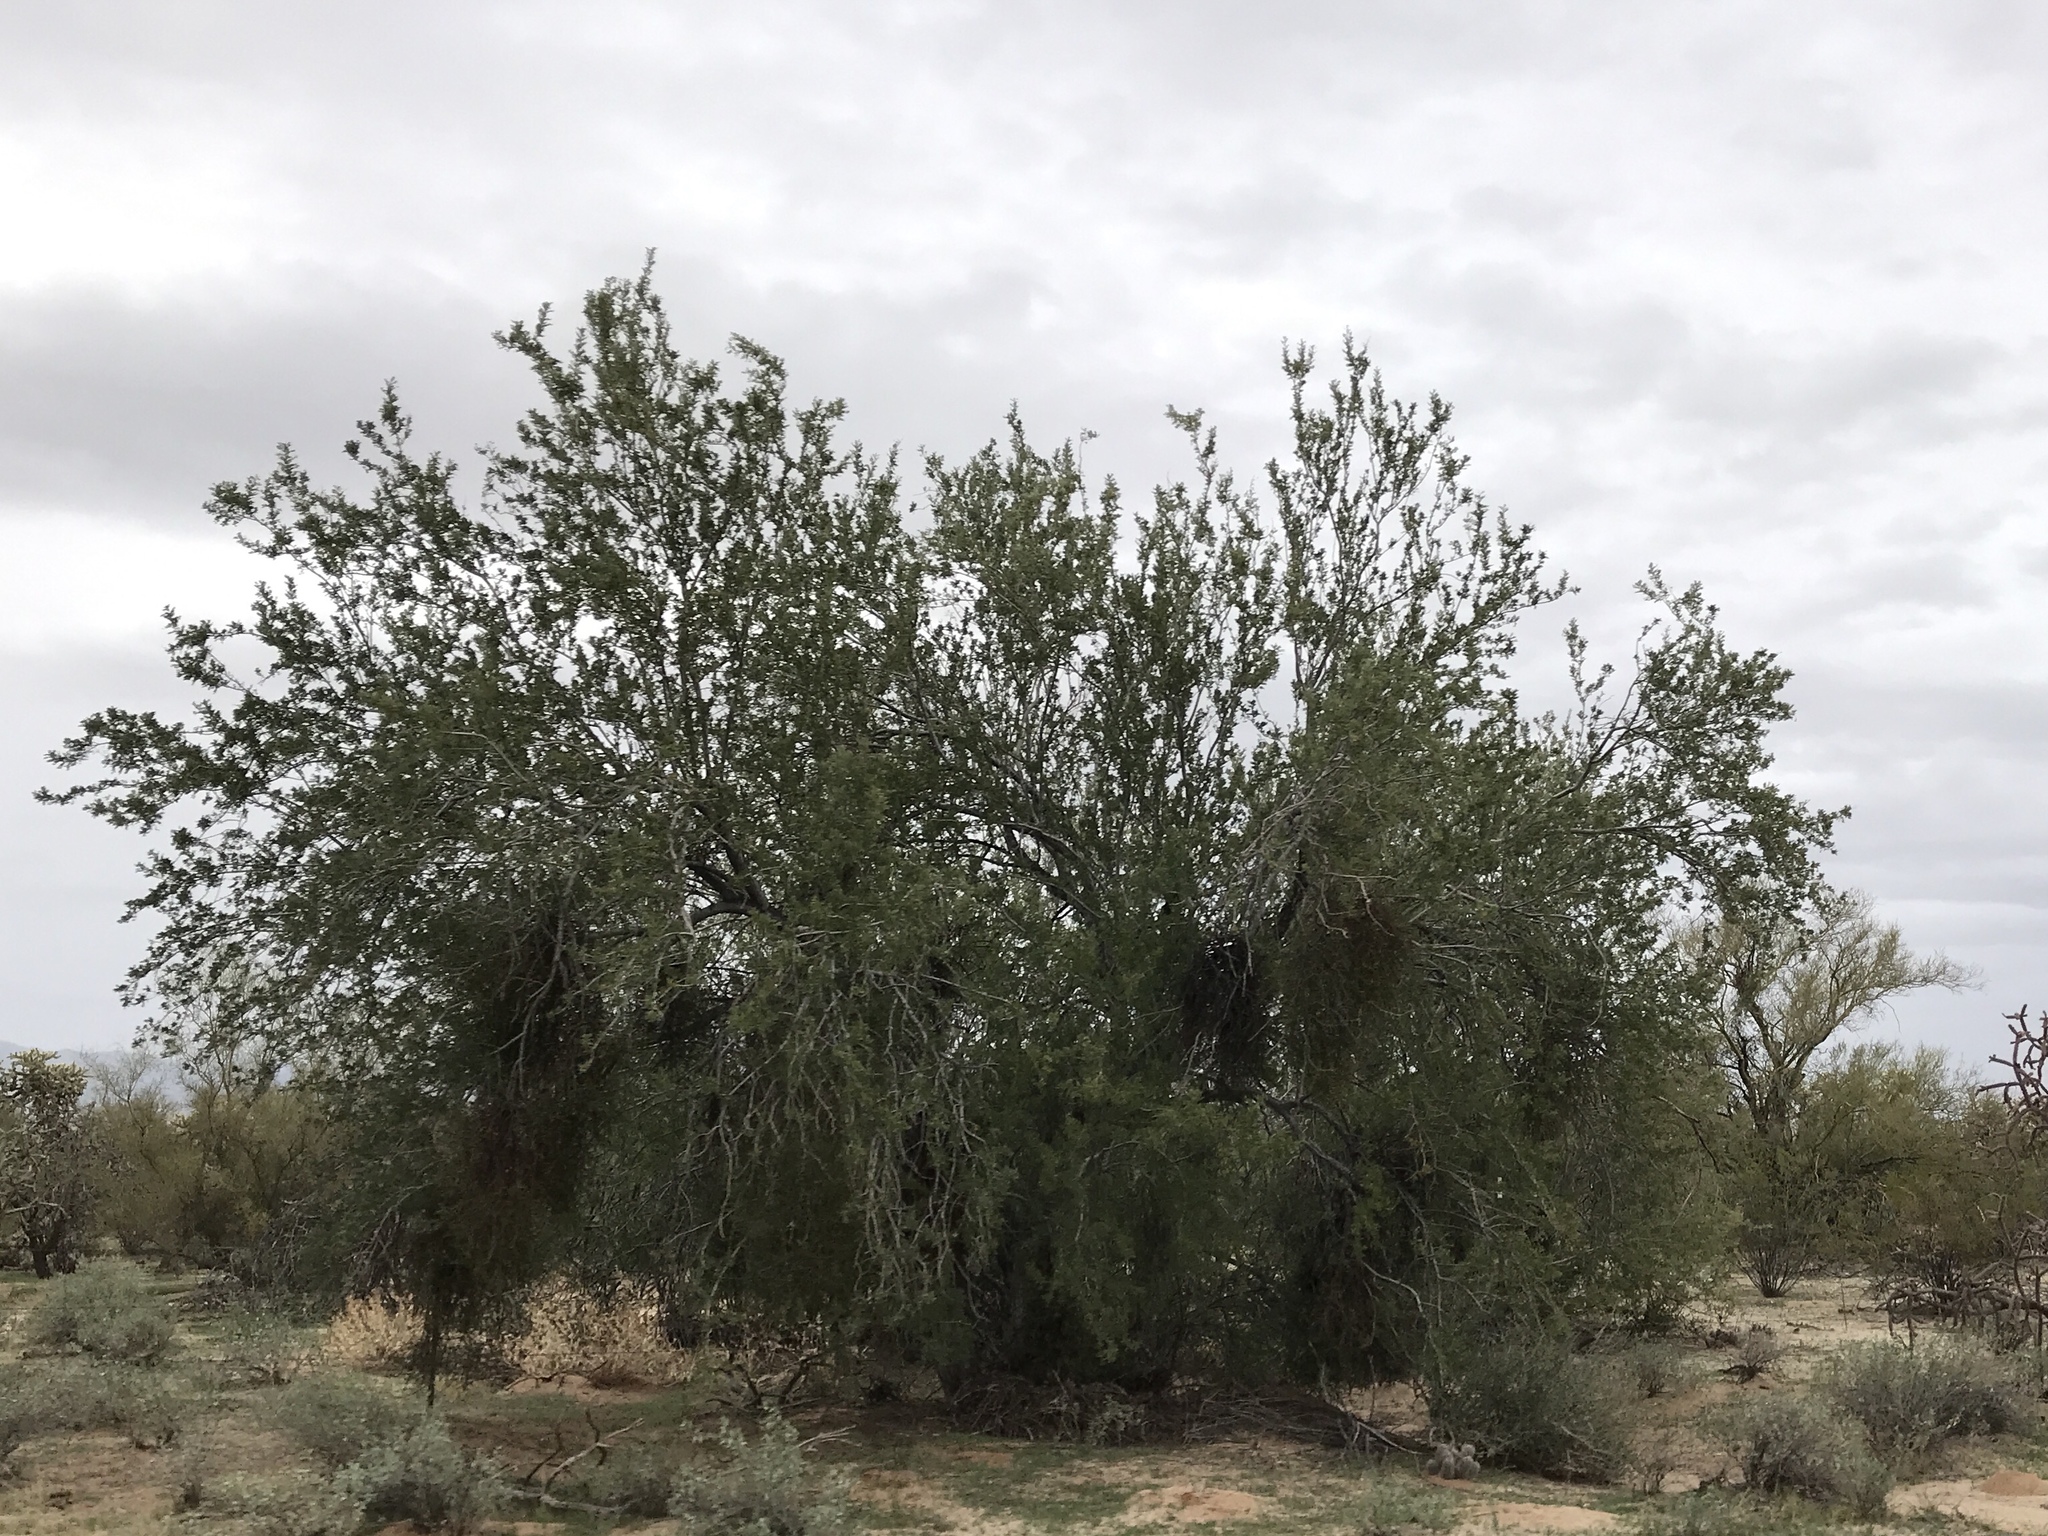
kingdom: Plantae
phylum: Tracheophyta
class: Magnoliopsida
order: Fabales
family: Fabaceae
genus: Olneya
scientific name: Olneya tesota
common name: Desert ironwood
